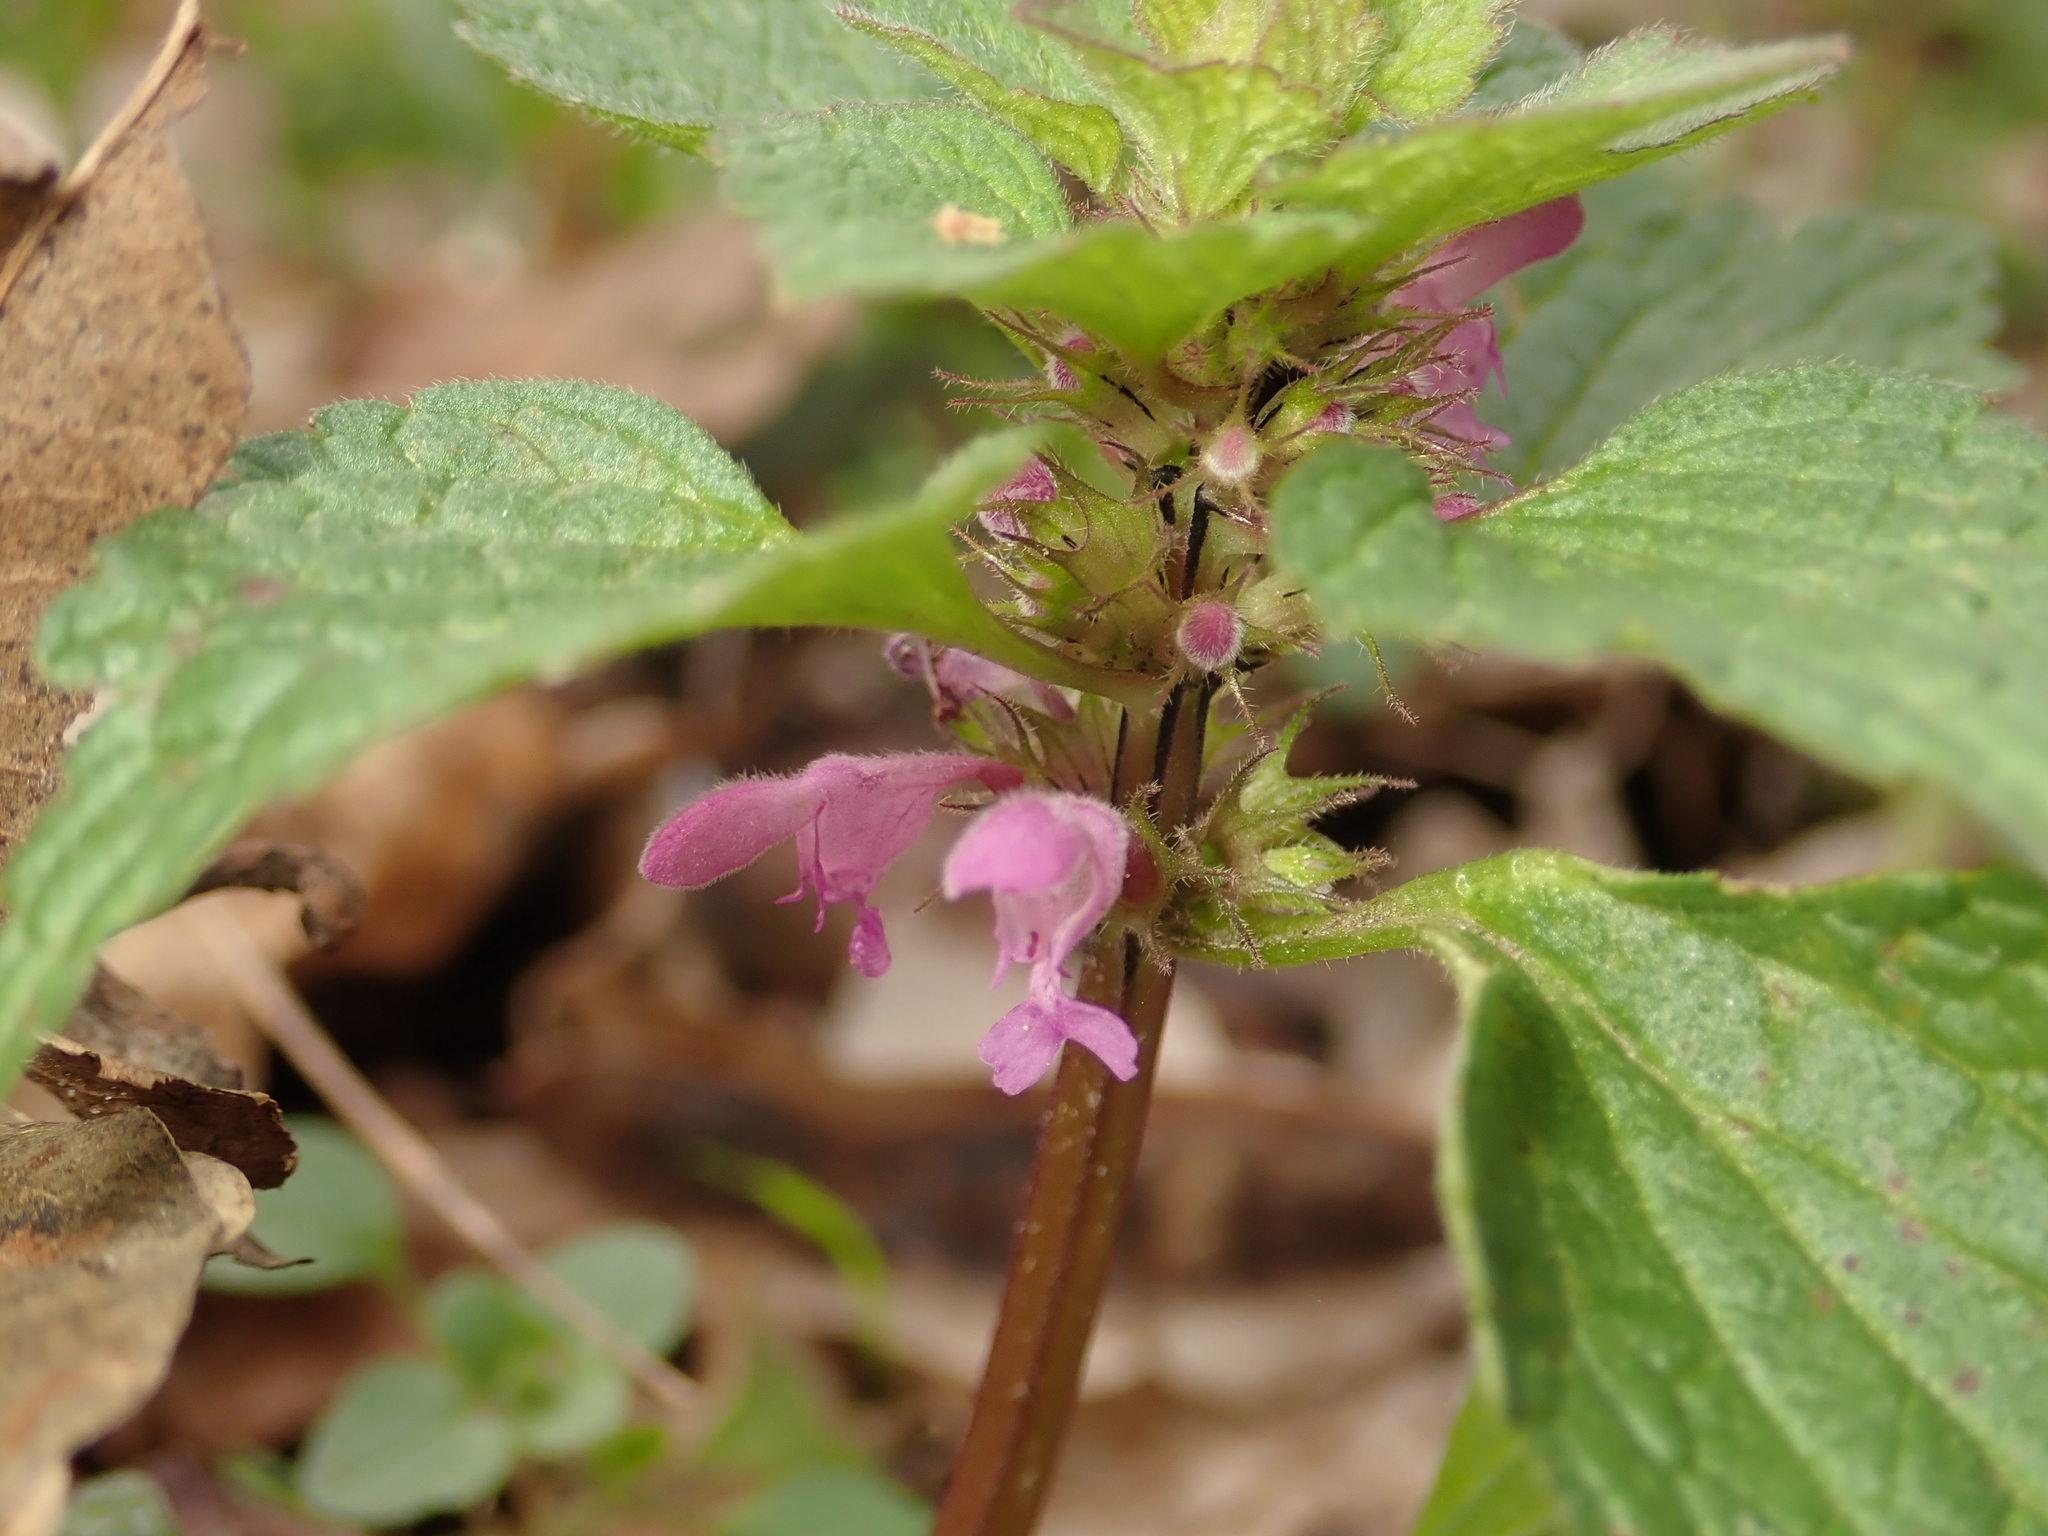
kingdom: Plantae
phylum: Tracheophyta
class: Magnoliopsida
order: Lamiales
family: Lamiaceae
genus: Lamium
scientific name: Lamium purpureum
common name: Red dead-nettle
